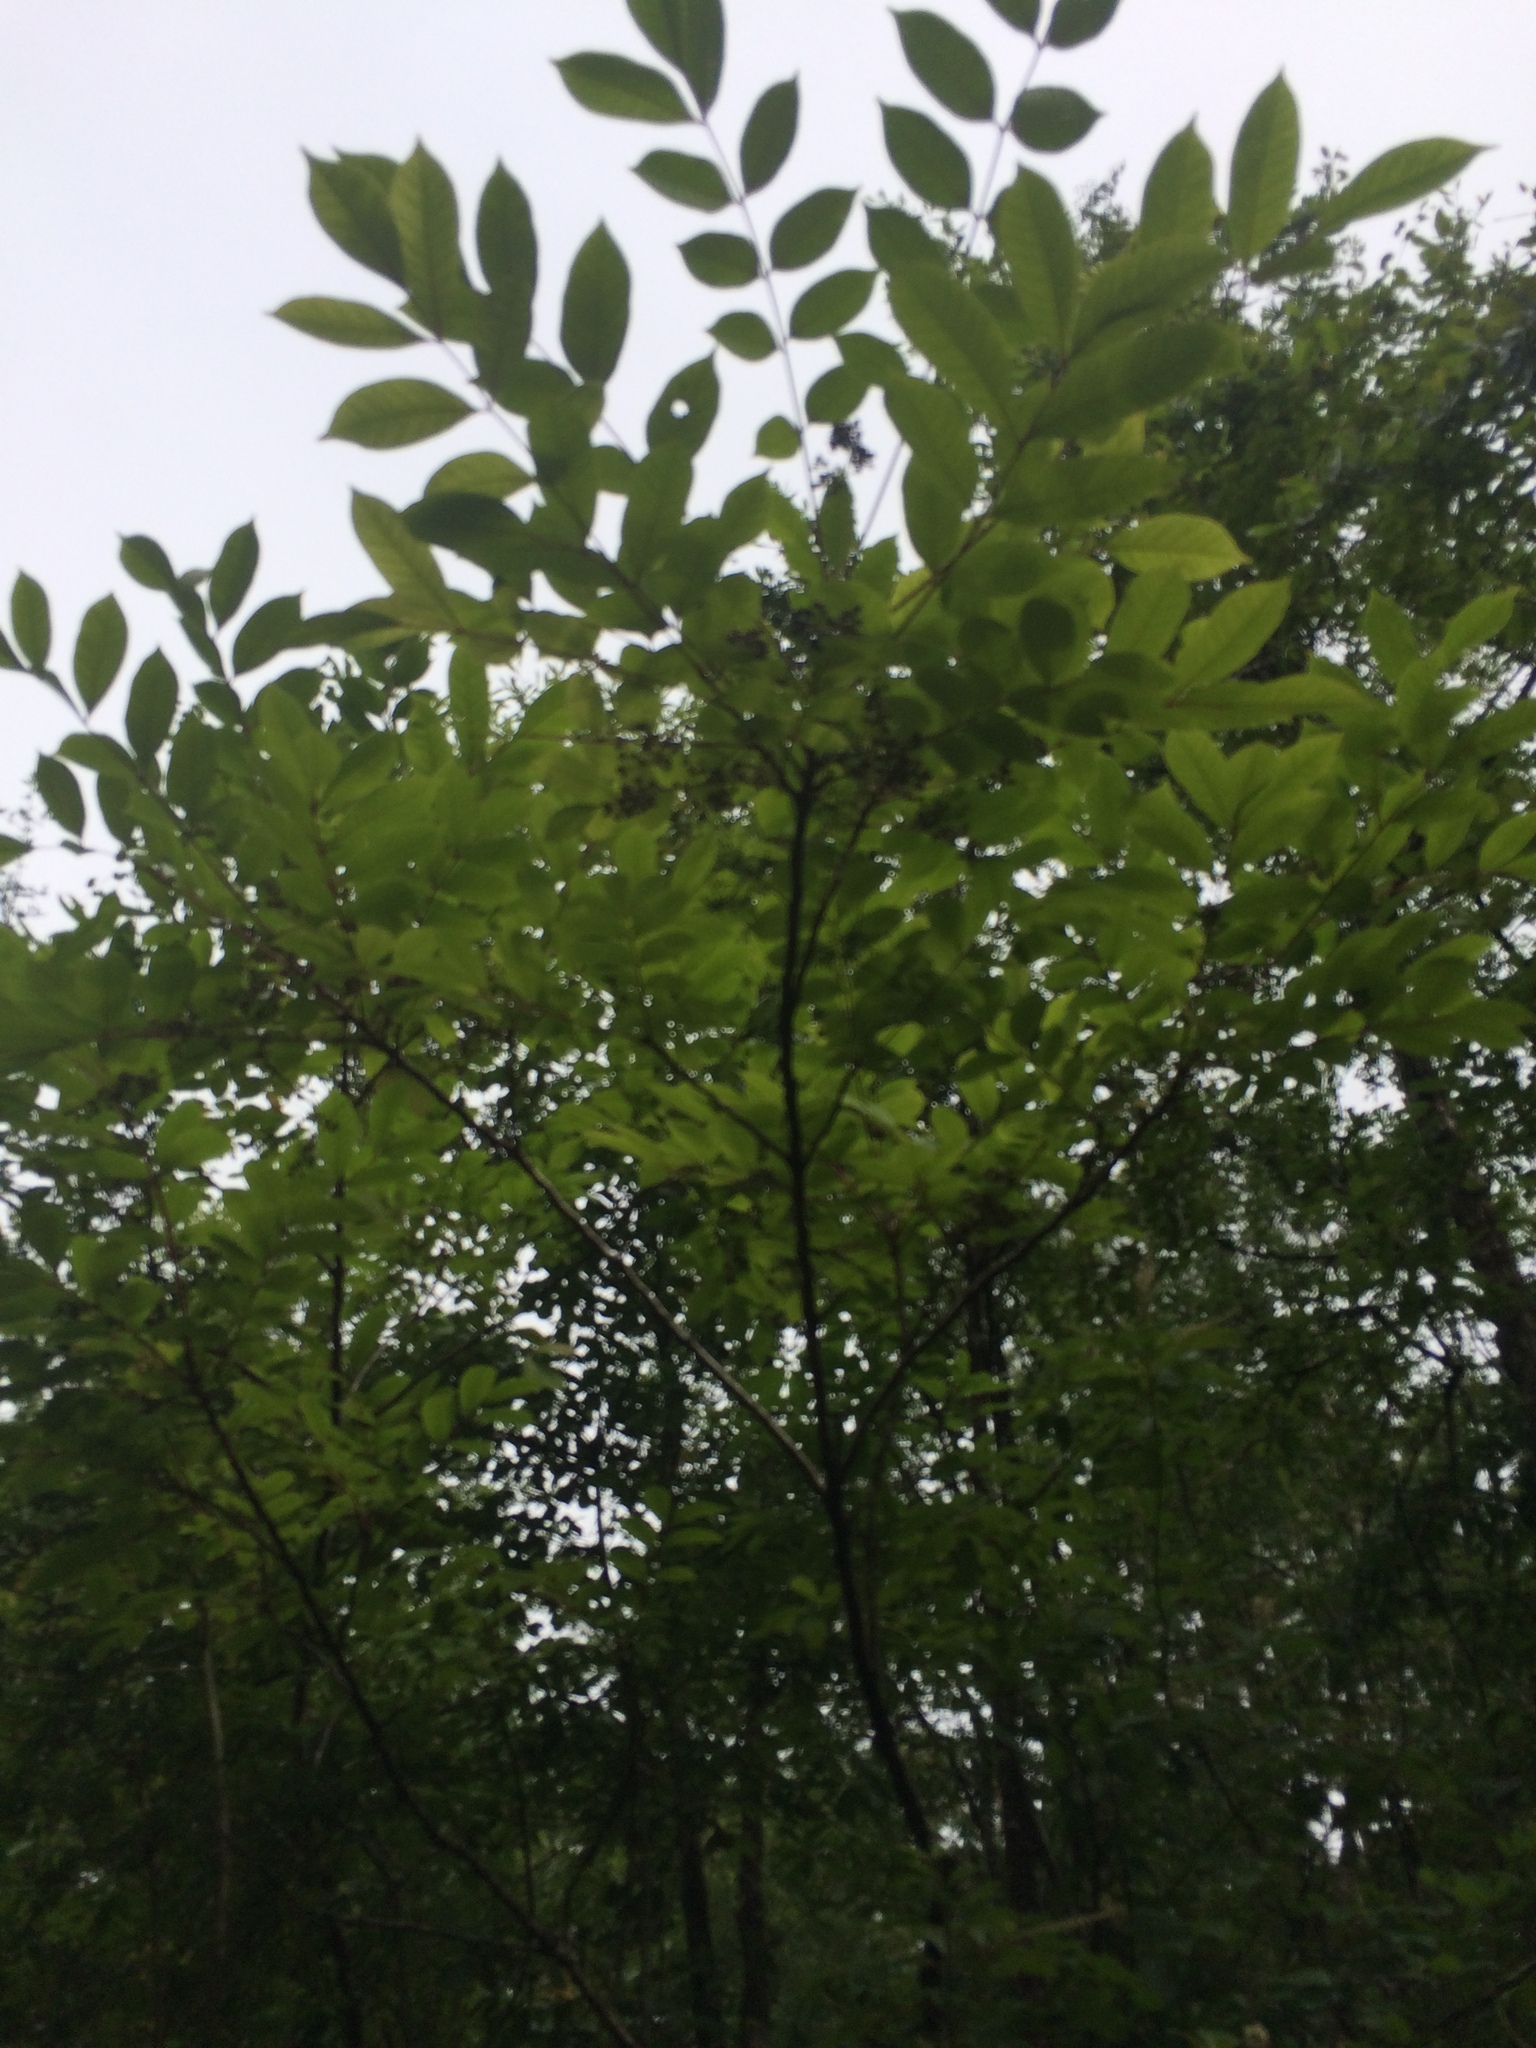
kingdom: Plantae
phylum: Tracheophyta
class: Magnoliopsida
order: Sapindales
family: Anacardiaceae
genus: Toxicodendron
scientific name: Toxicodendron vernix
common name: Poison sumac
